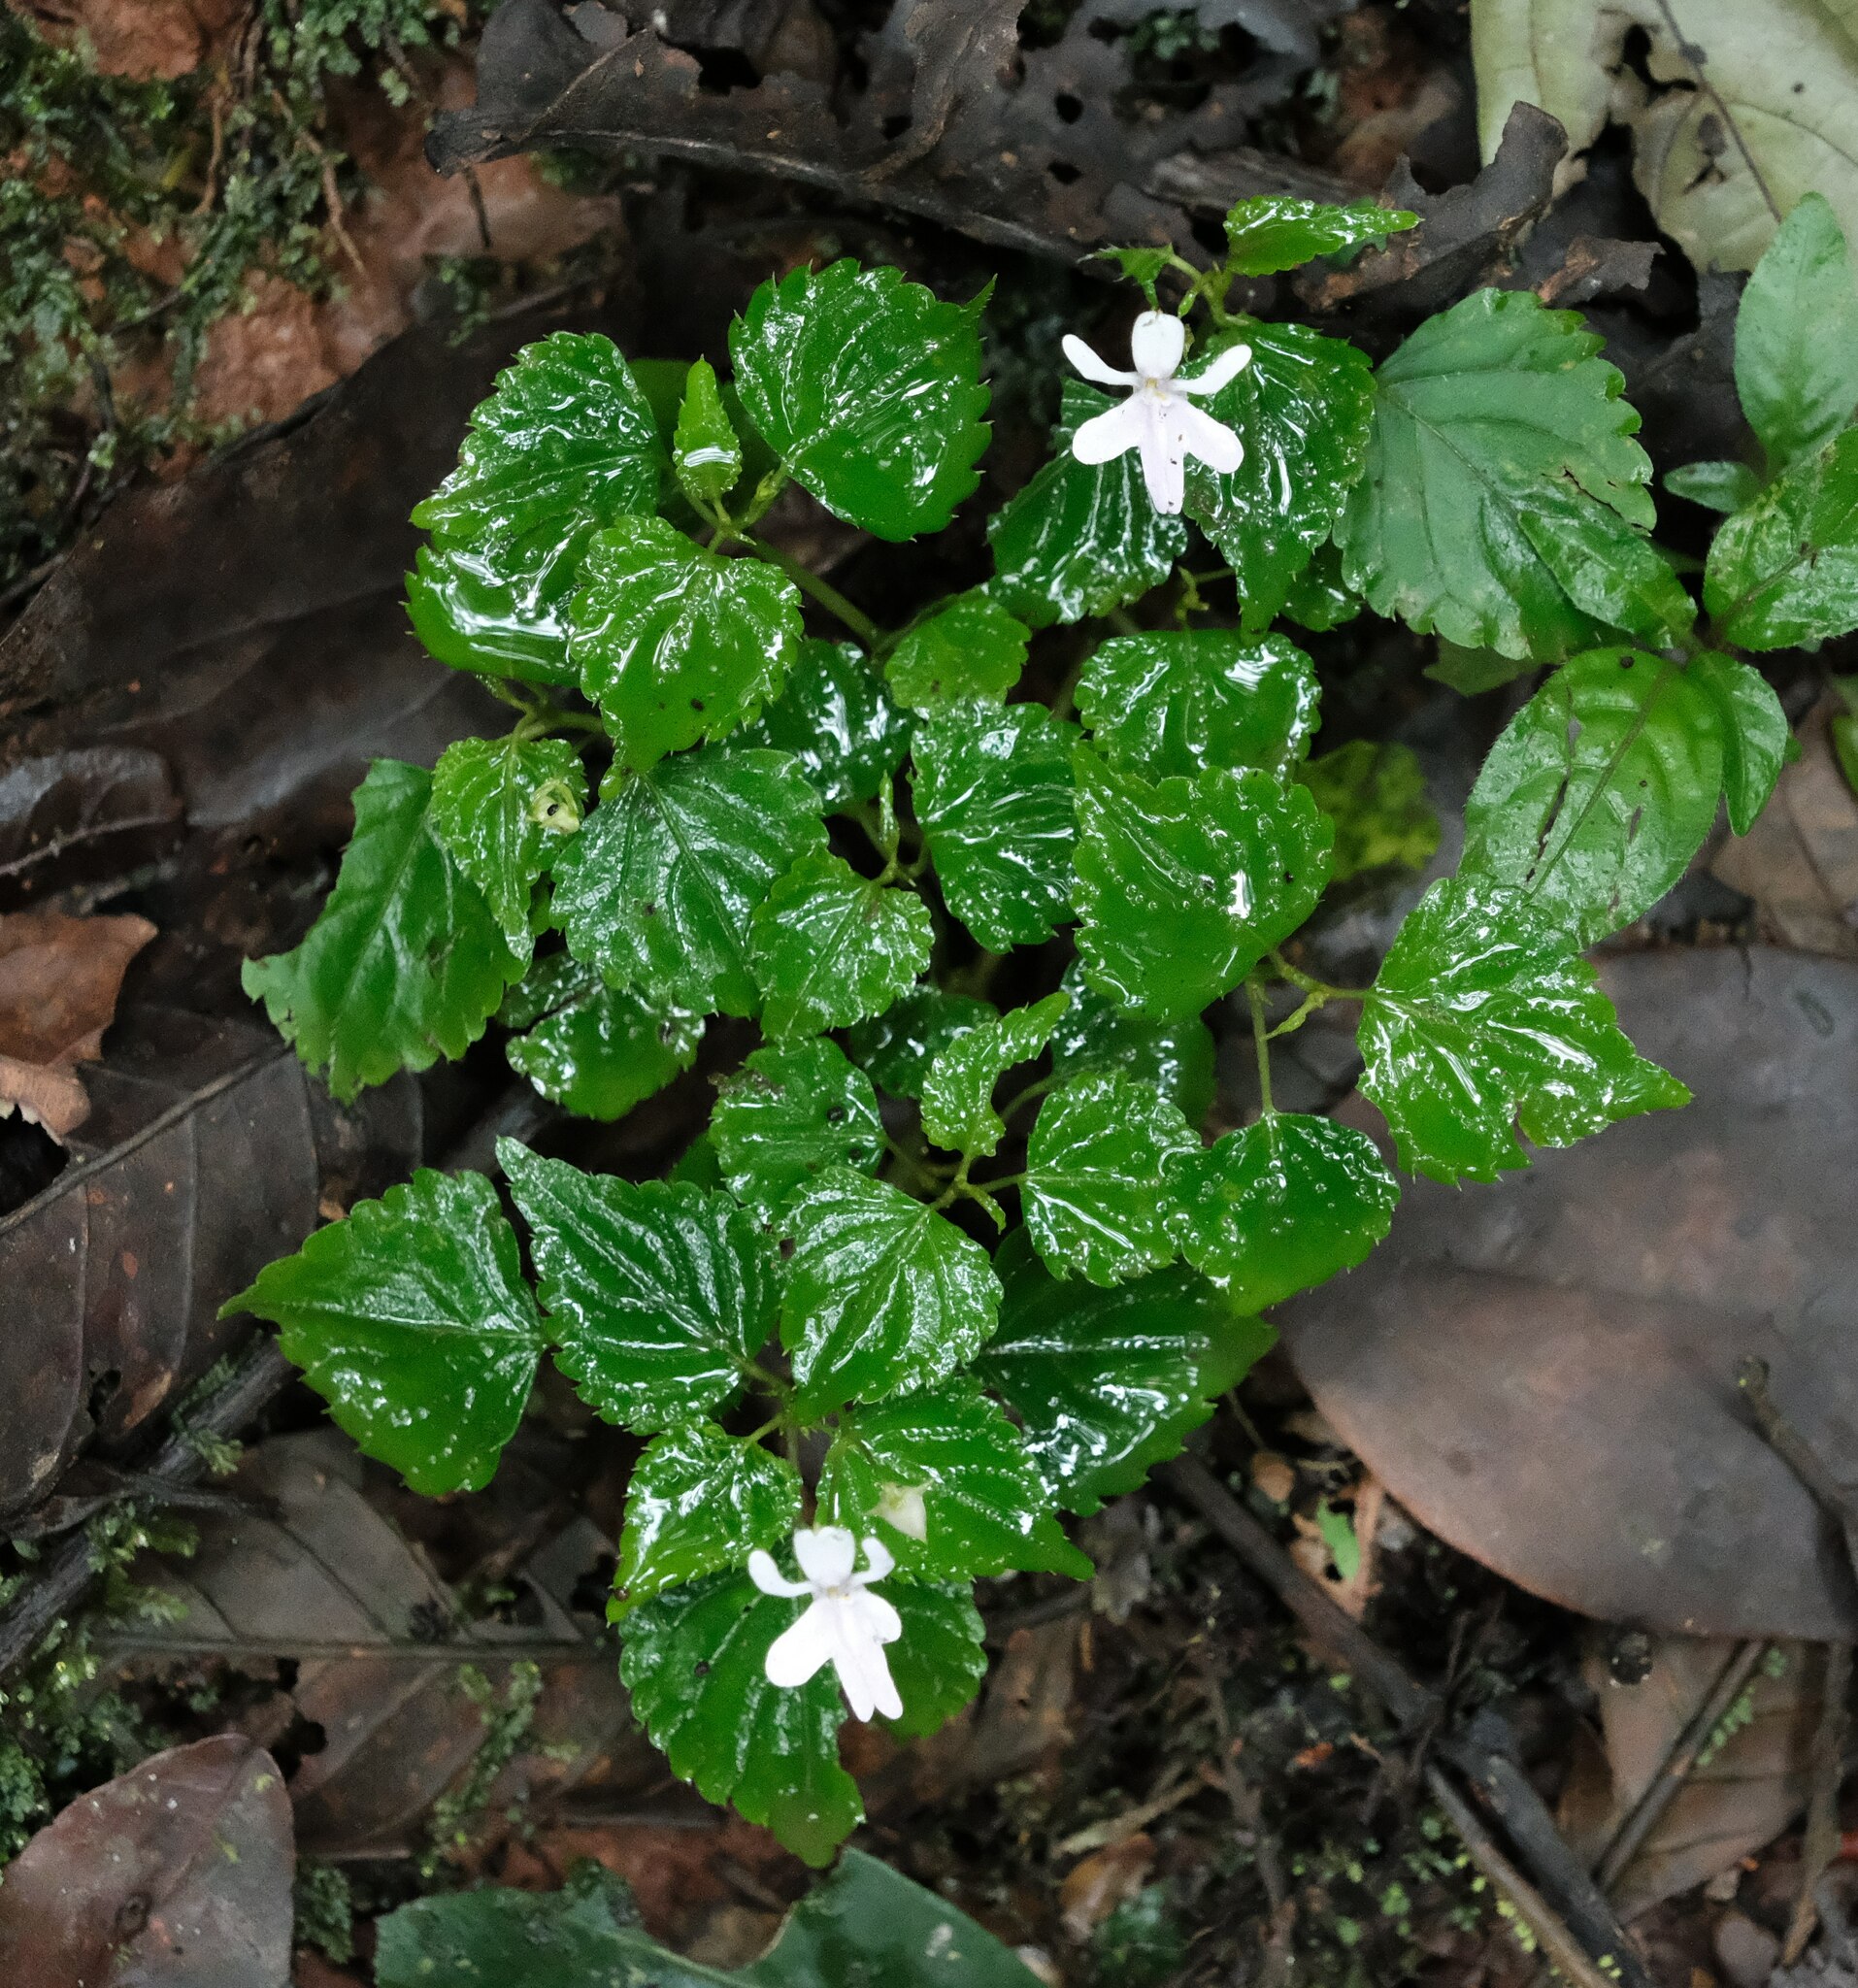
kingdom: Plantae
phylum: Tracheophyta
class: Magnoliopsida
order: Ericales
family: Balsaminaceae
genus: Impatiens
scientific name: Impatiens bequaertii
